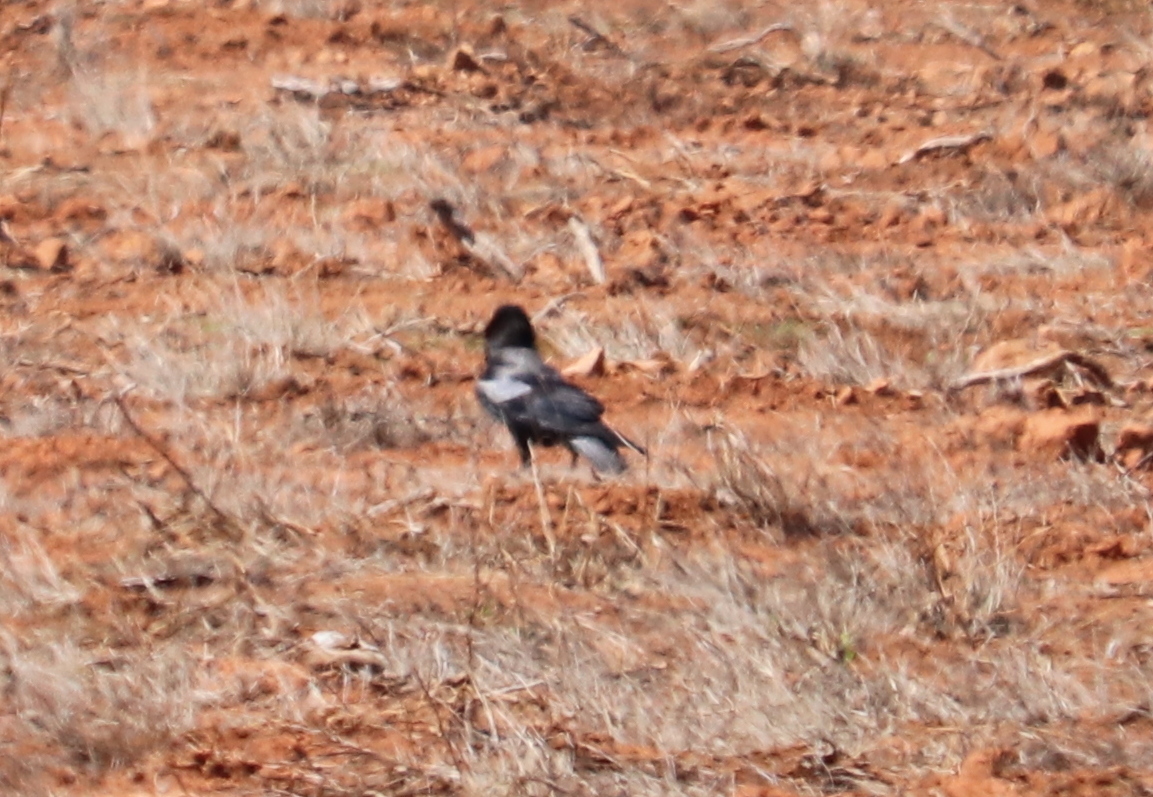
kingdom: Animalia
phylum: Chordata
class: Aves
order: Passeriformes
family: Corvidae
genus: Corvus
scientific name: Corvus capensis
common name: Cape crow
